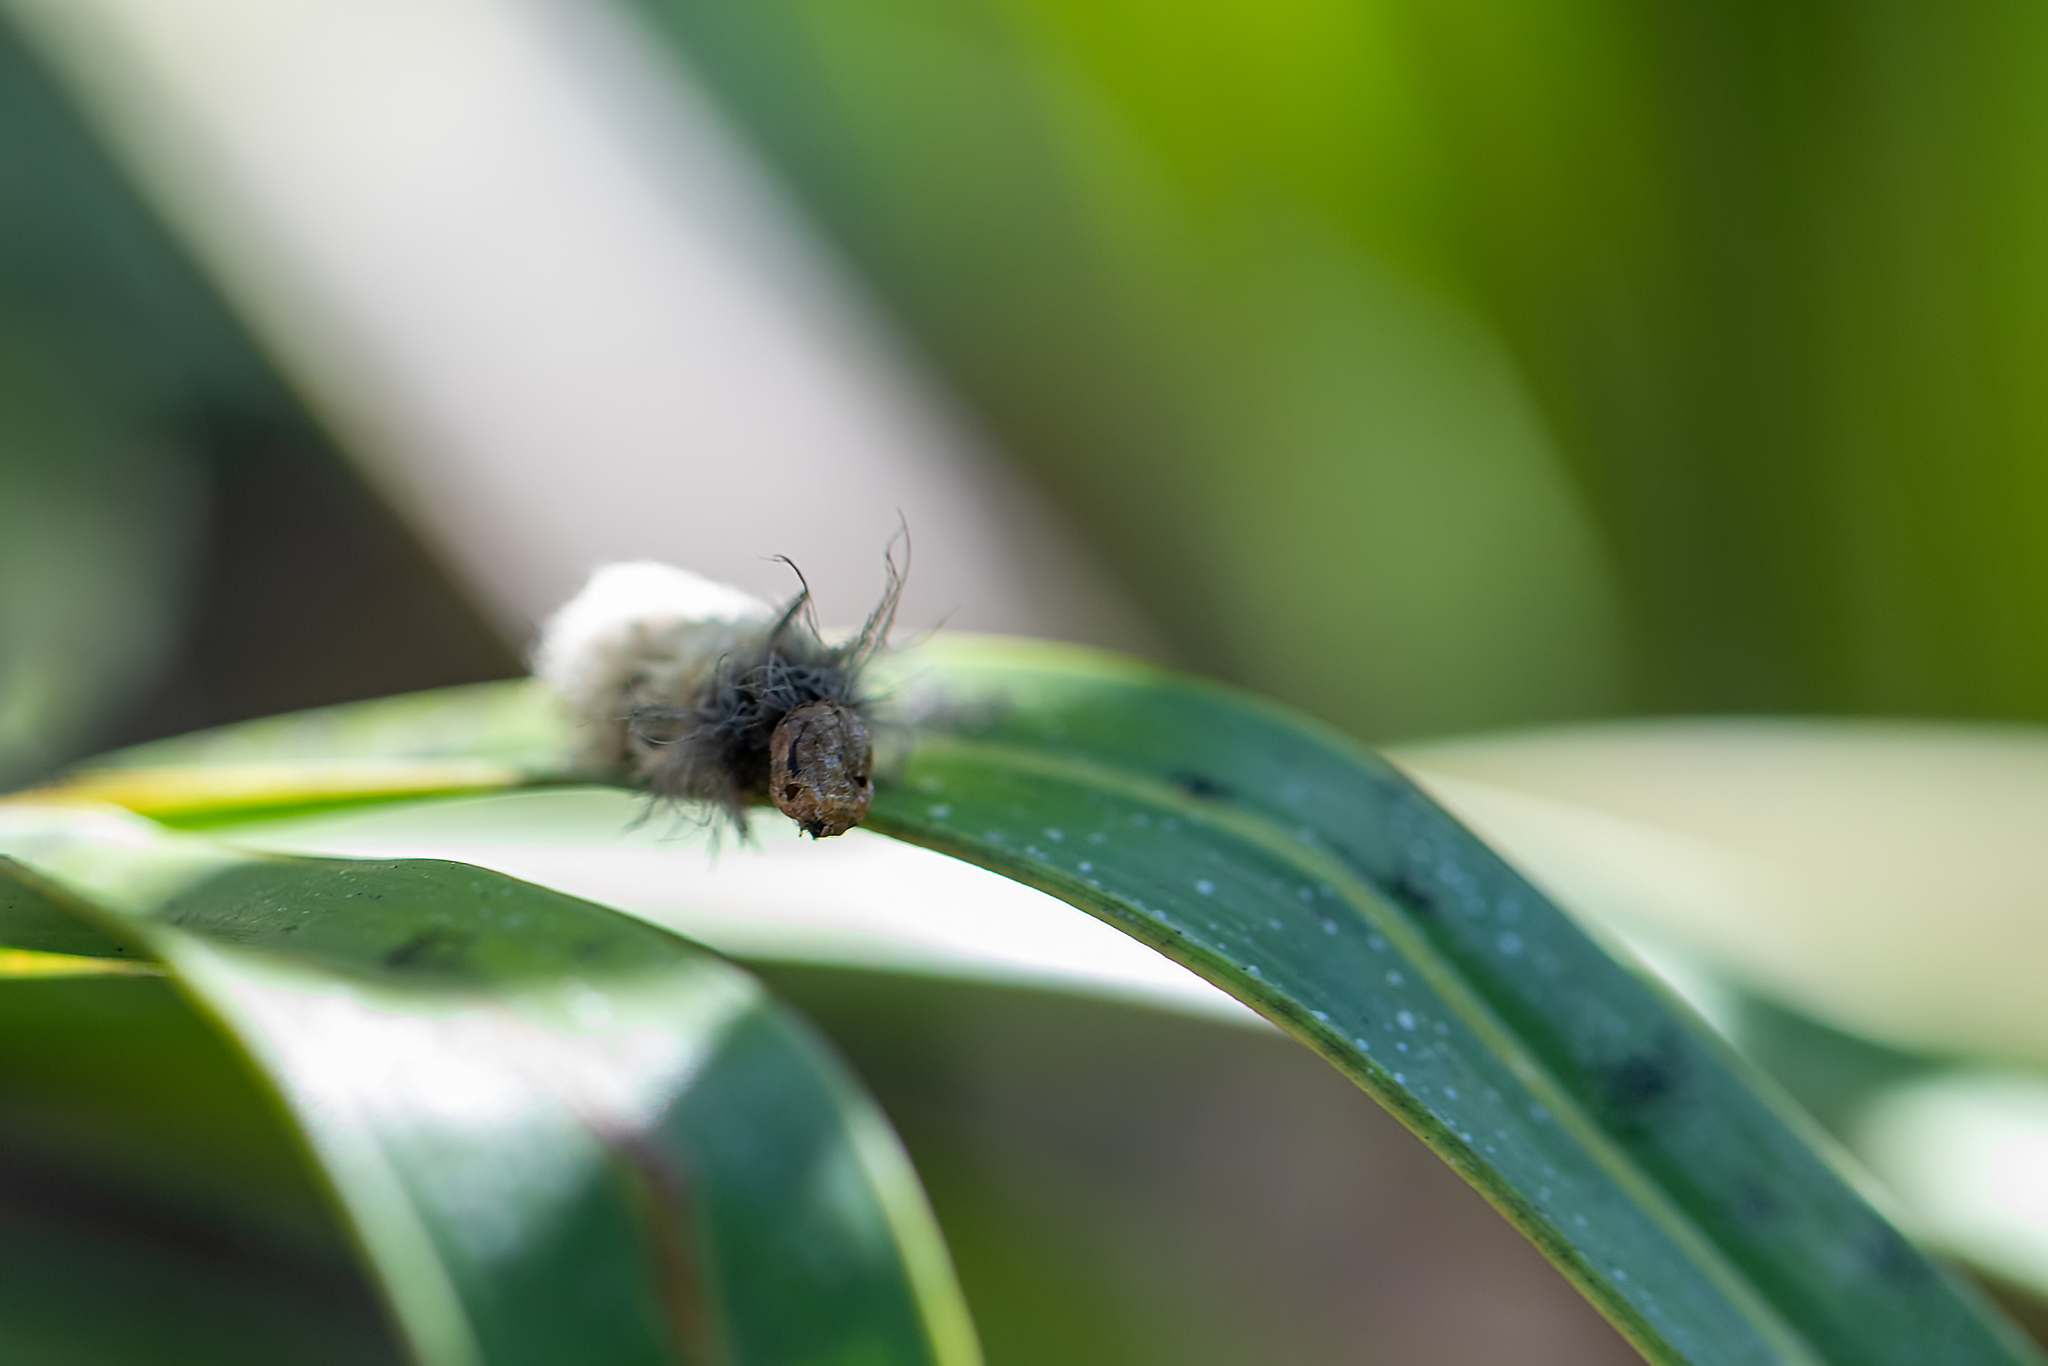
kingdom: Animalia
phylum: Arthropoda
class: Insecta
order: Lepidoptera
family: Megalopygidae
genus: Megalopyge
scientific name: Megalopyge crispata
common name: Black-waved flannel moth
